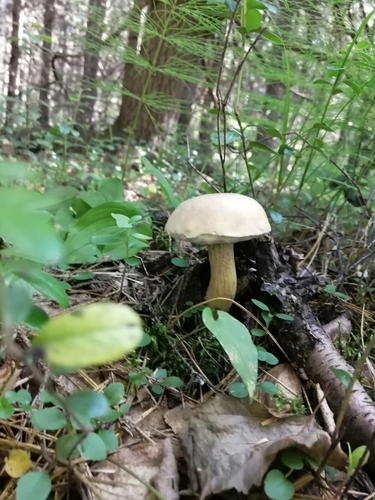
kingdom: Fungi
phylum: Basidiomycota
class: Agaricomycetes
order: Boletales
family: Boletaceae
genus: Tylopilus
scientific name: Tylopilus felleus
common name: Bitter bolete
